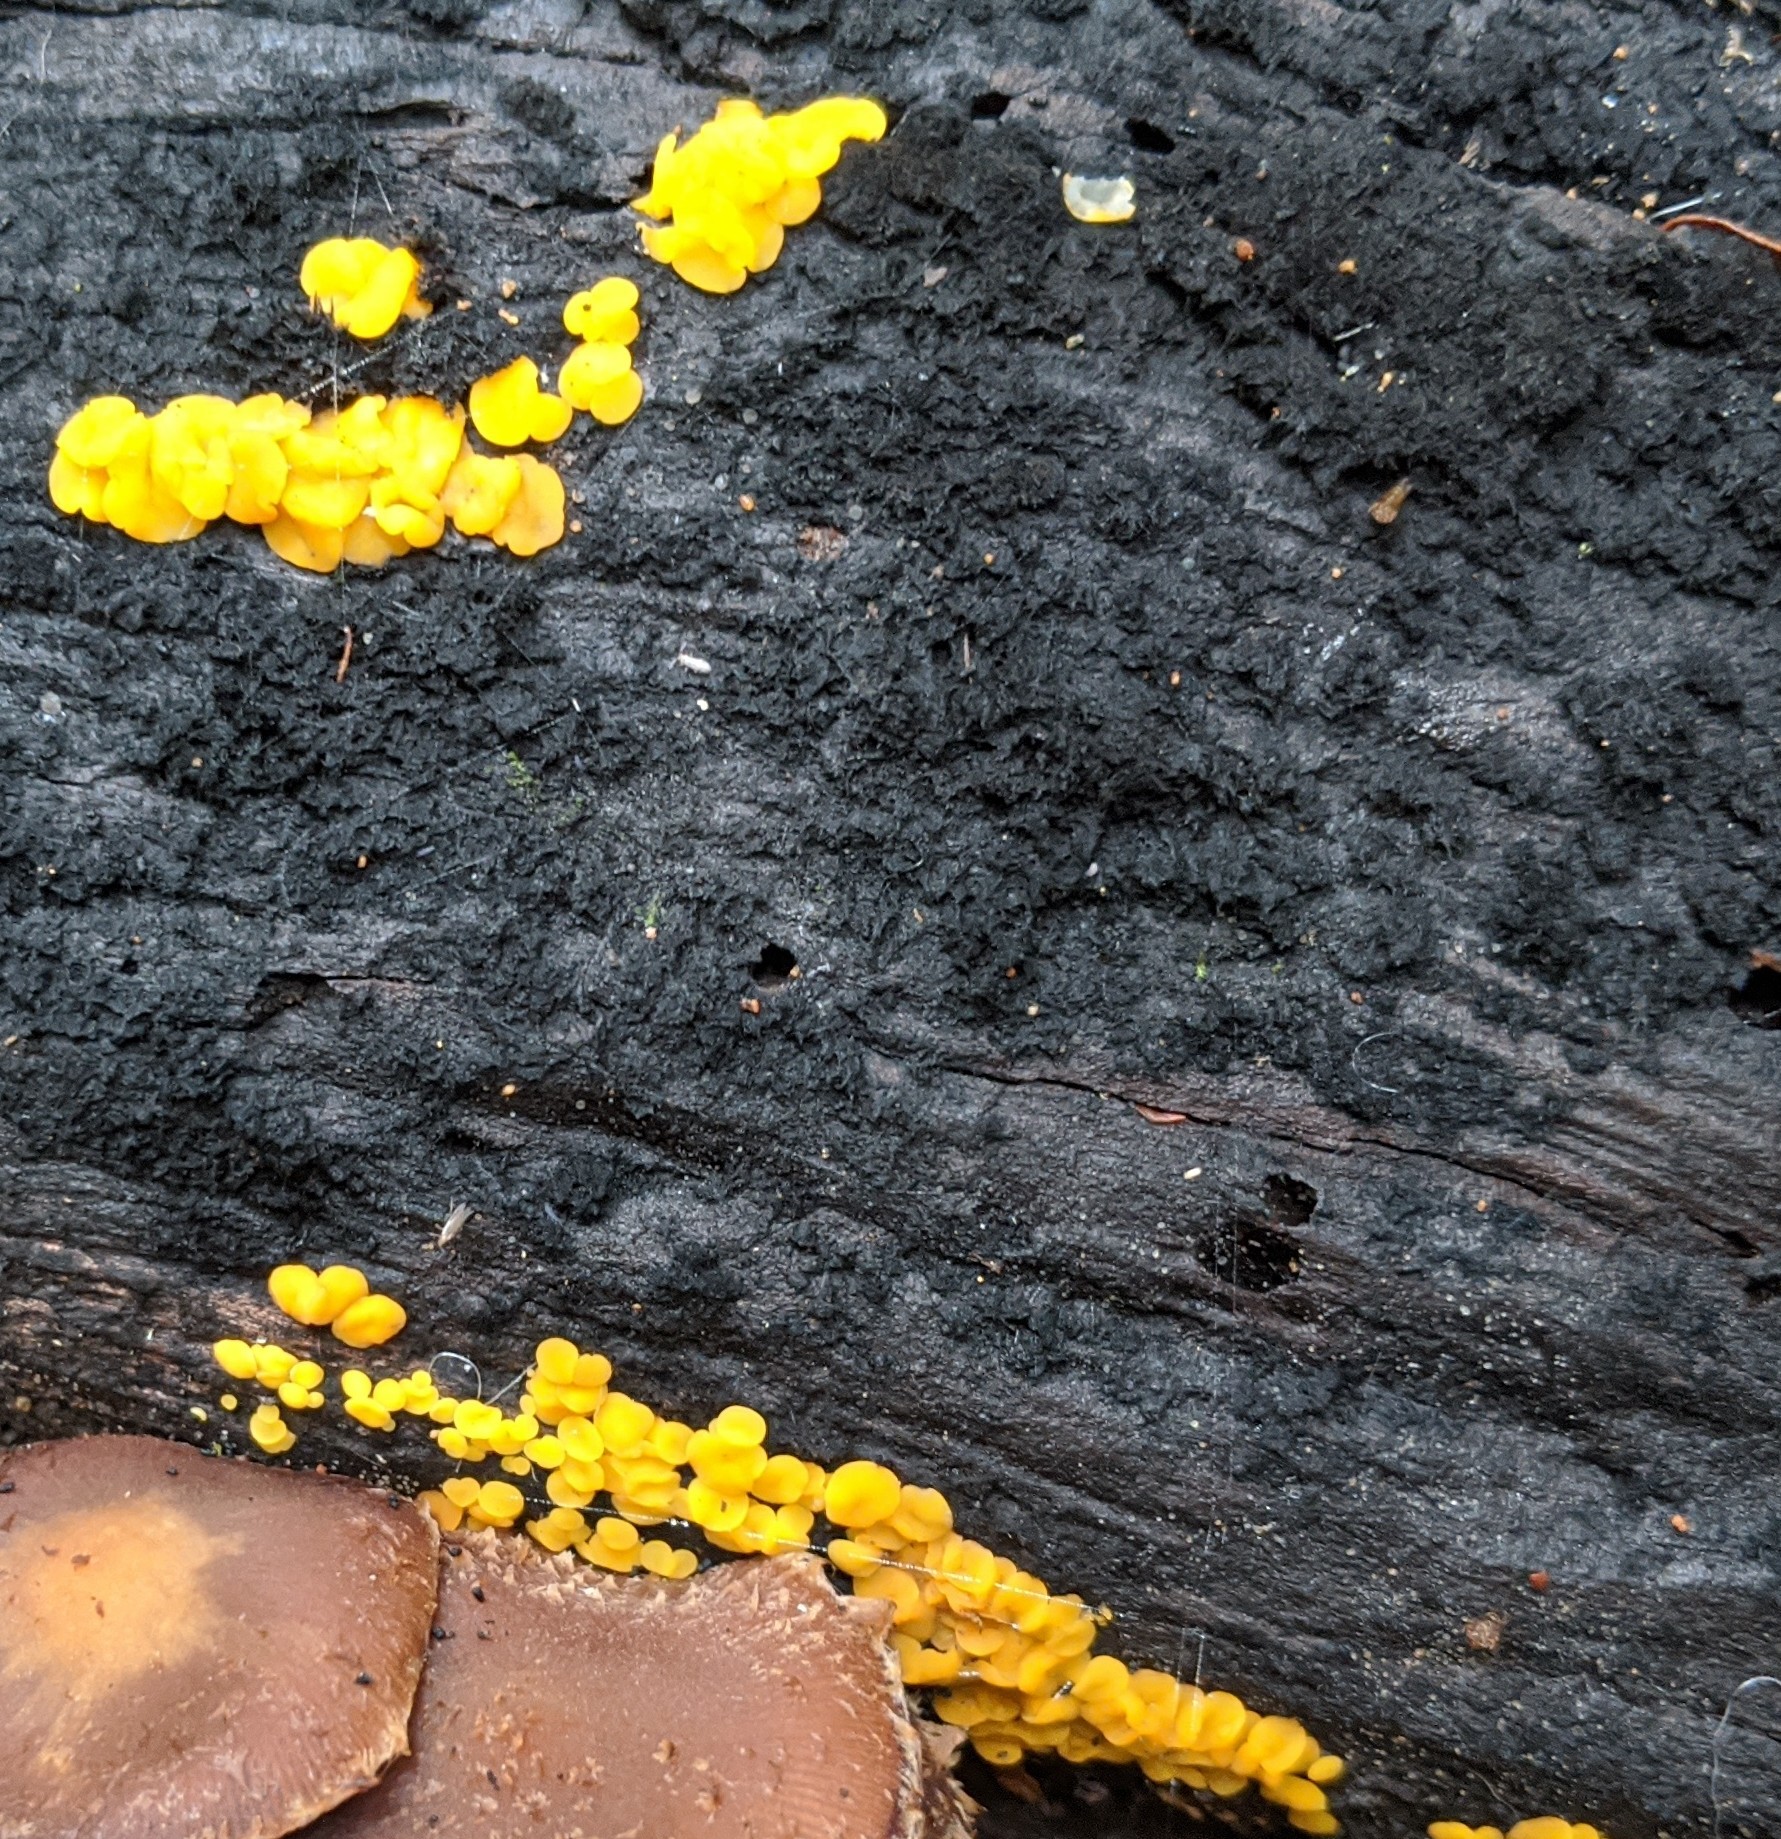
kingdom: Fungi
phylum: Ascomycota
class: Leotiomycetes
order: Helotiales
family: Pezizellaceae
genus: Calycina
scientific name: Calycina citrina
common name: Yellow fairy cups
